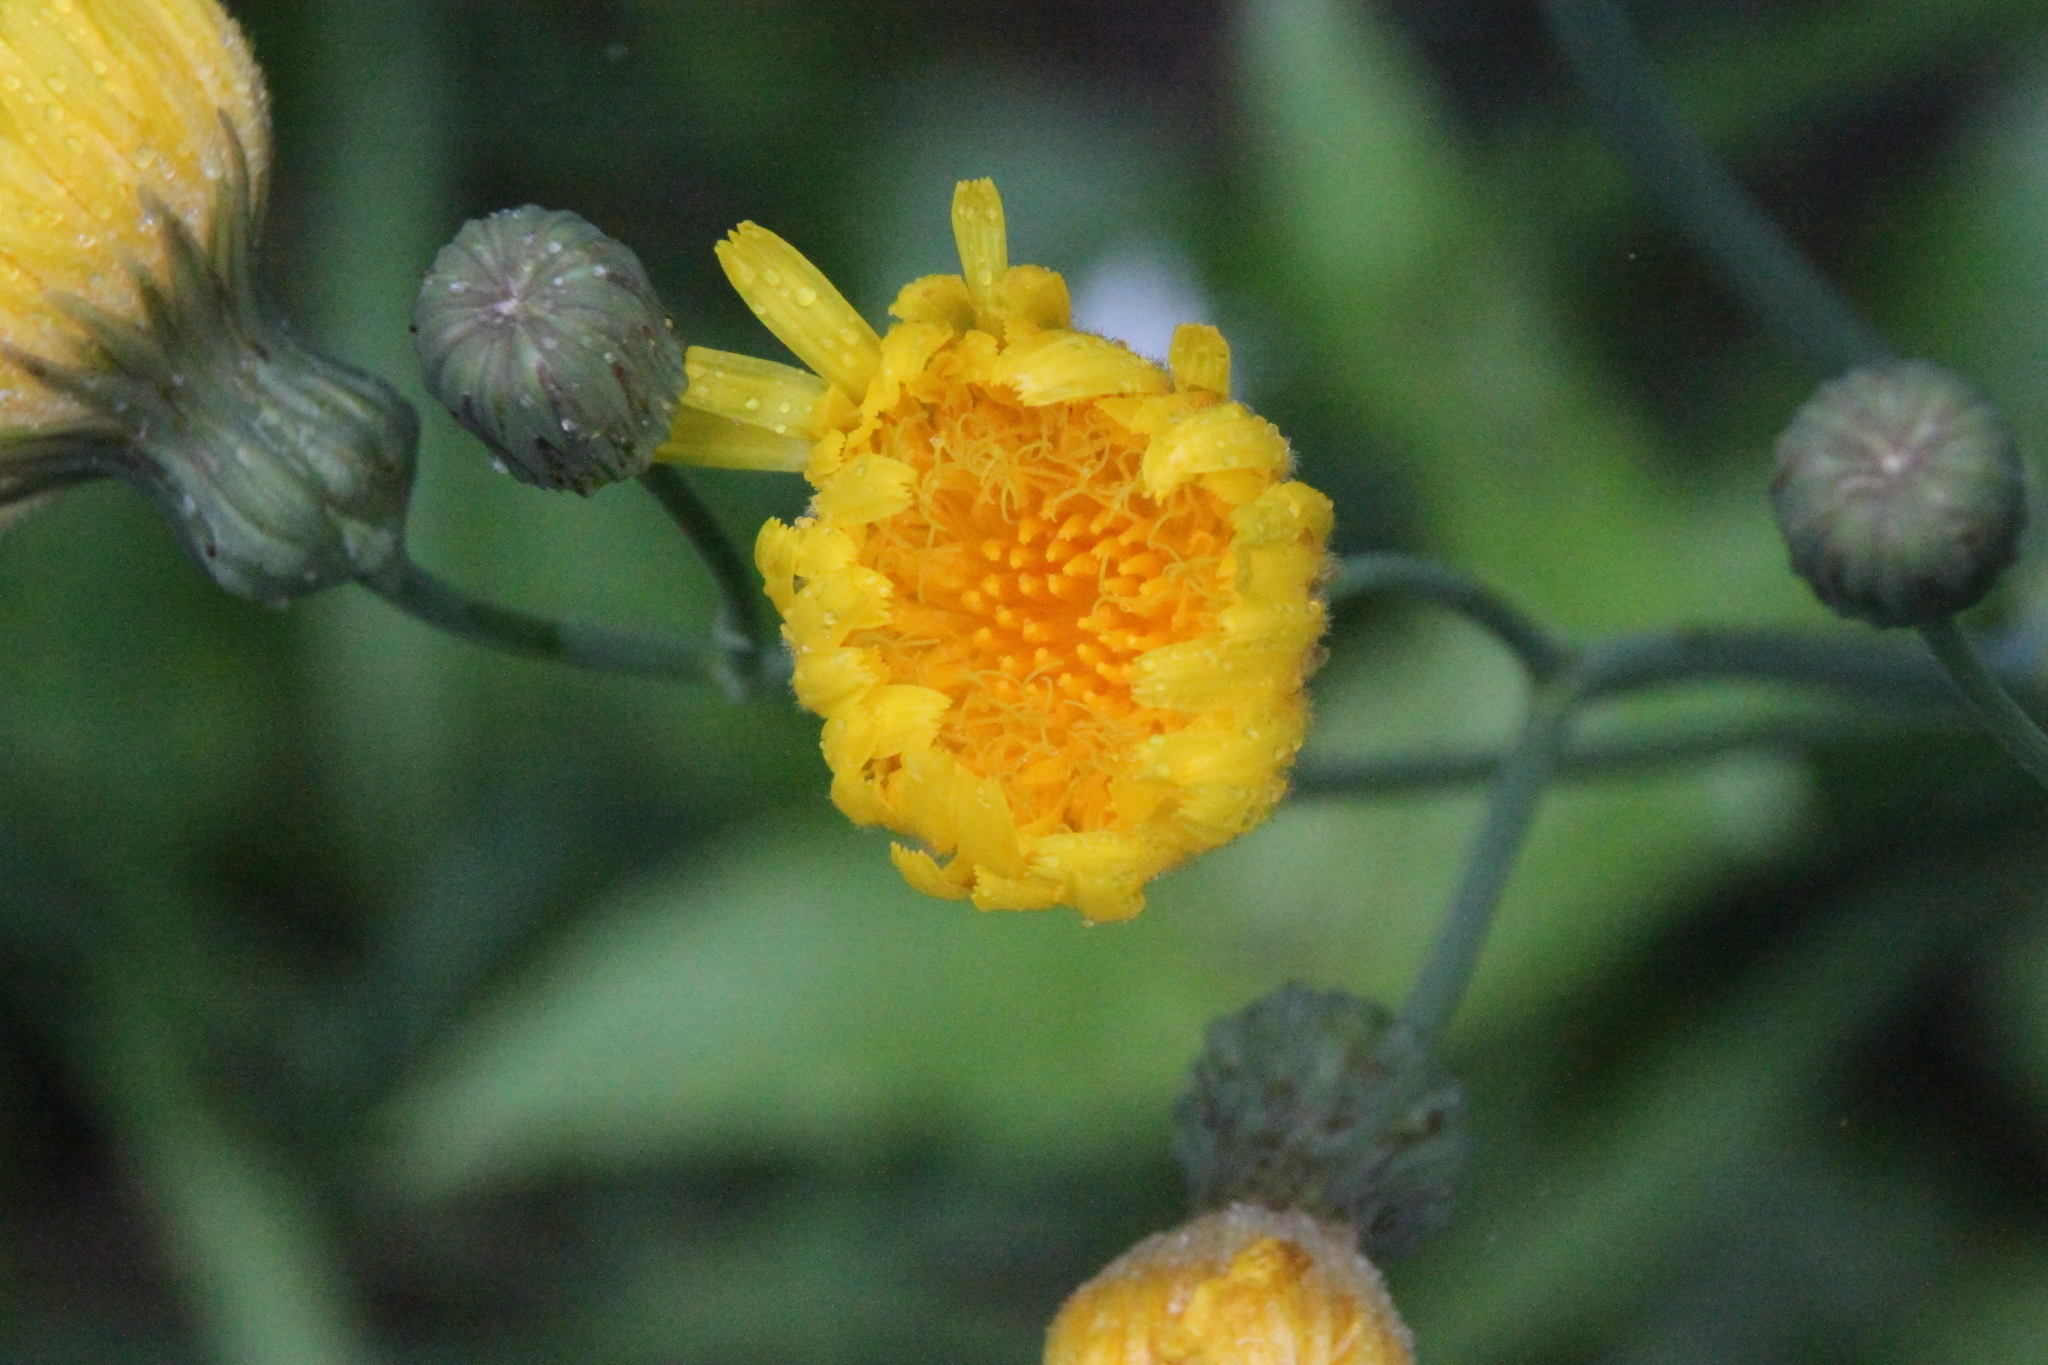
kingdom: Plantae
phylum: Tracheophyta
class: Magnoliopsida
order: Asterales
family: Asteraceae
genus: Sonchus
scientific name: Sonchus arvensis
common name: Perennial sow-thistle
